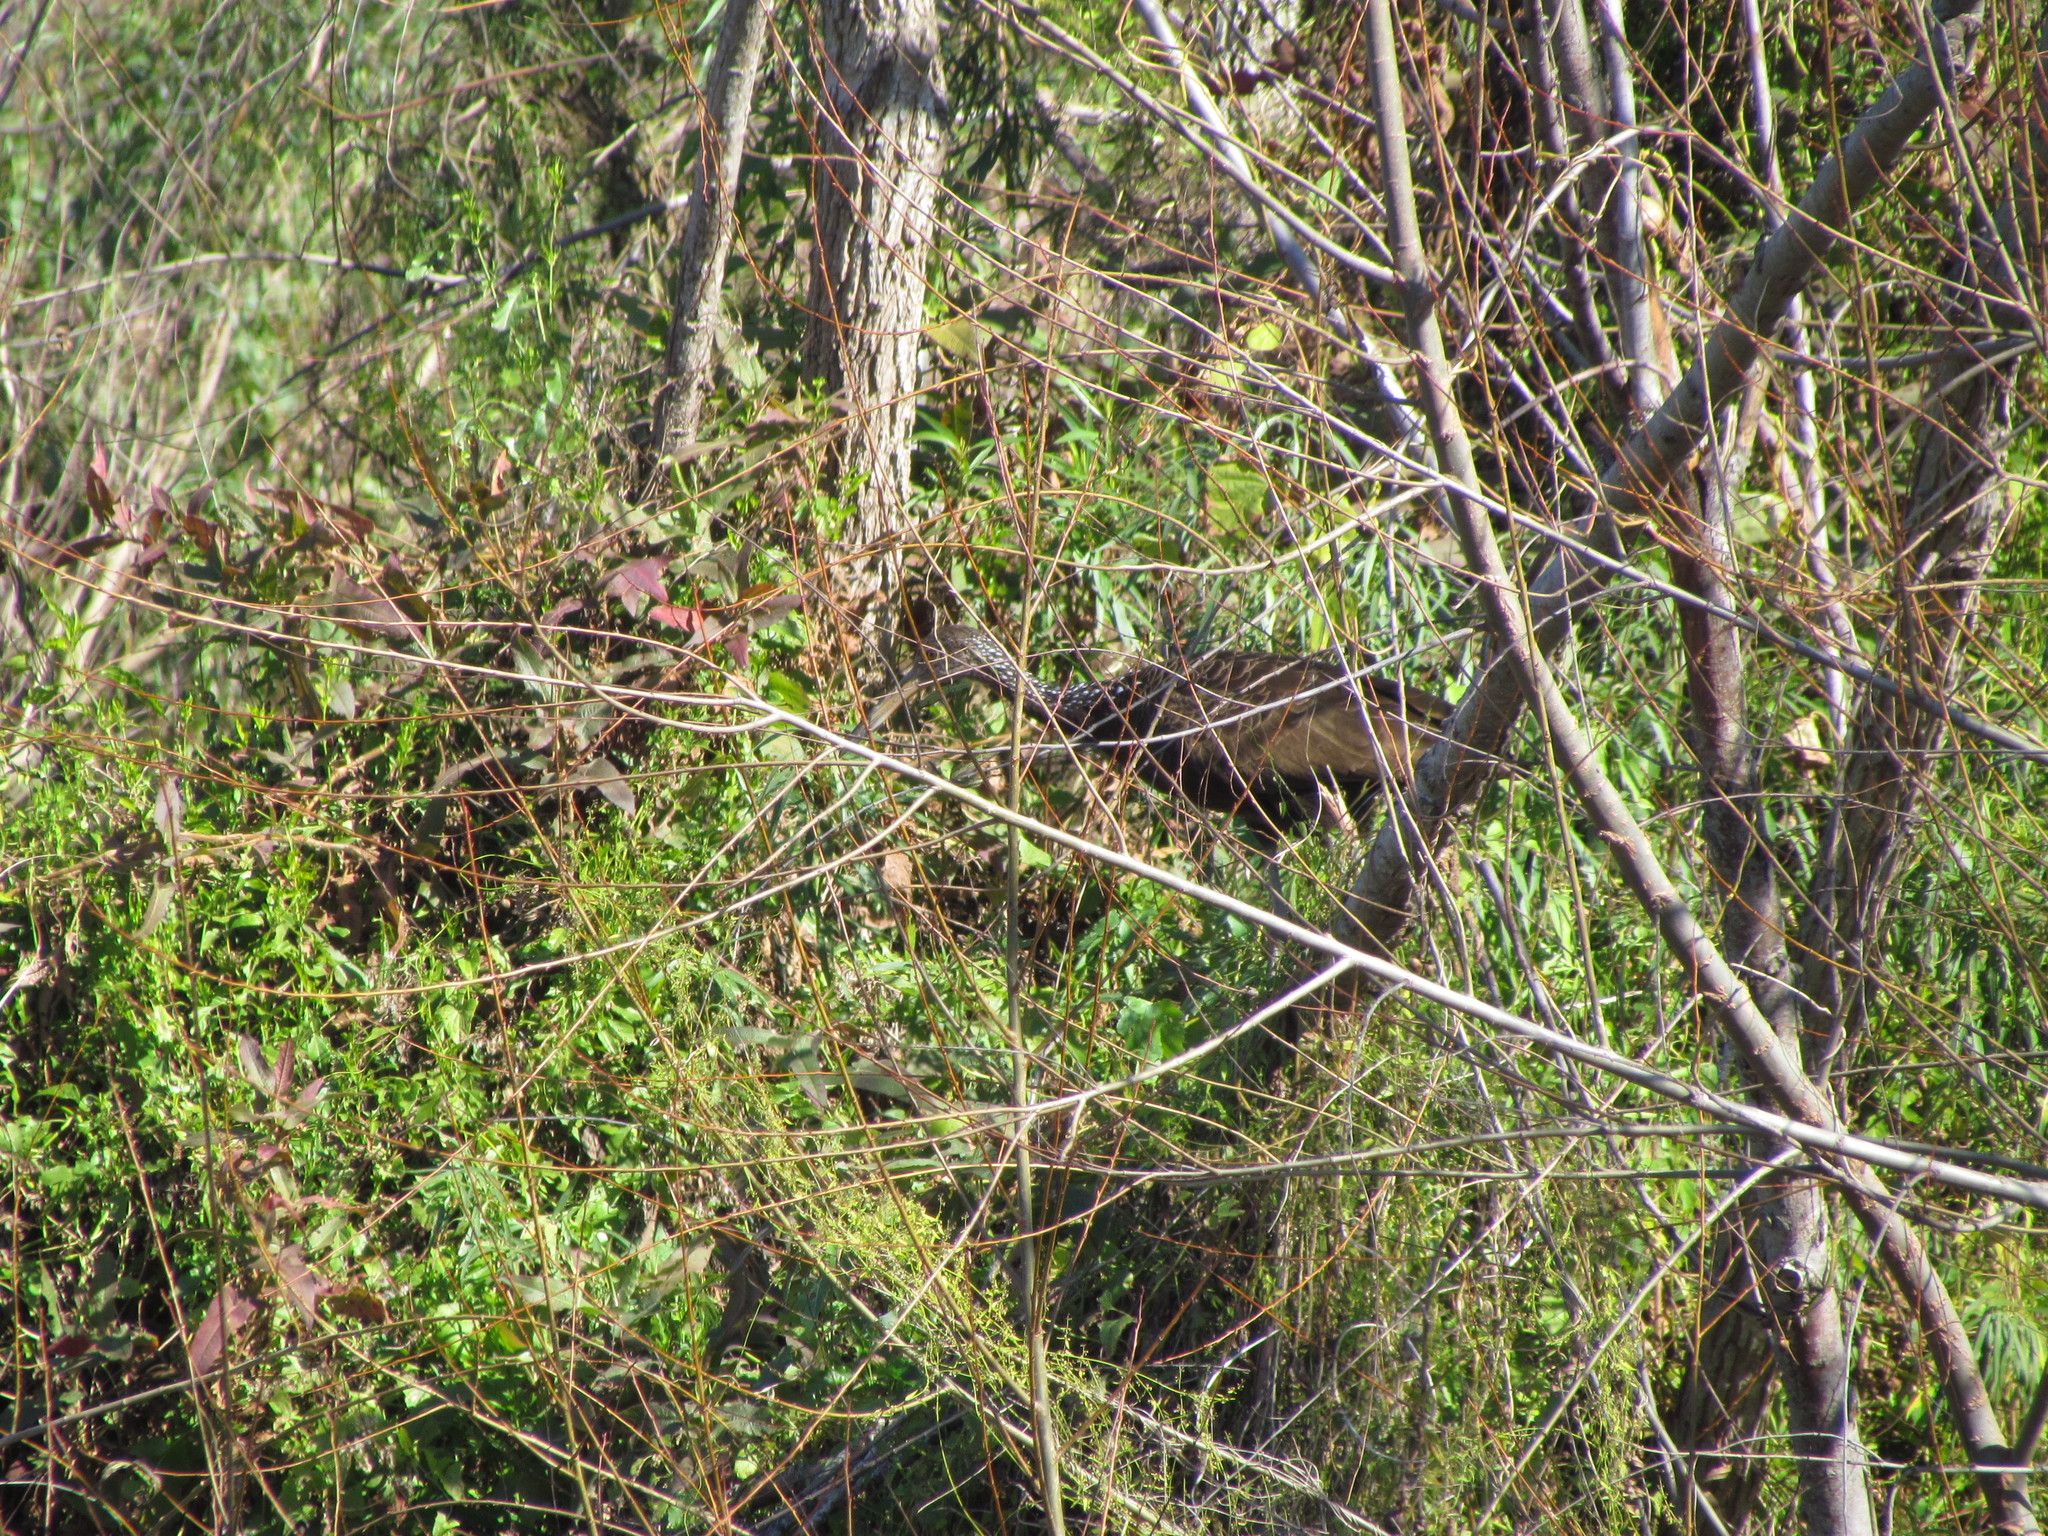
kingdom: Animalia
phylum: Chordata
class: Aves
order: Gruiformes
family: Aramidae
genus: Aramus
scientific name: Aramus guarauna
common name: Limpkin
